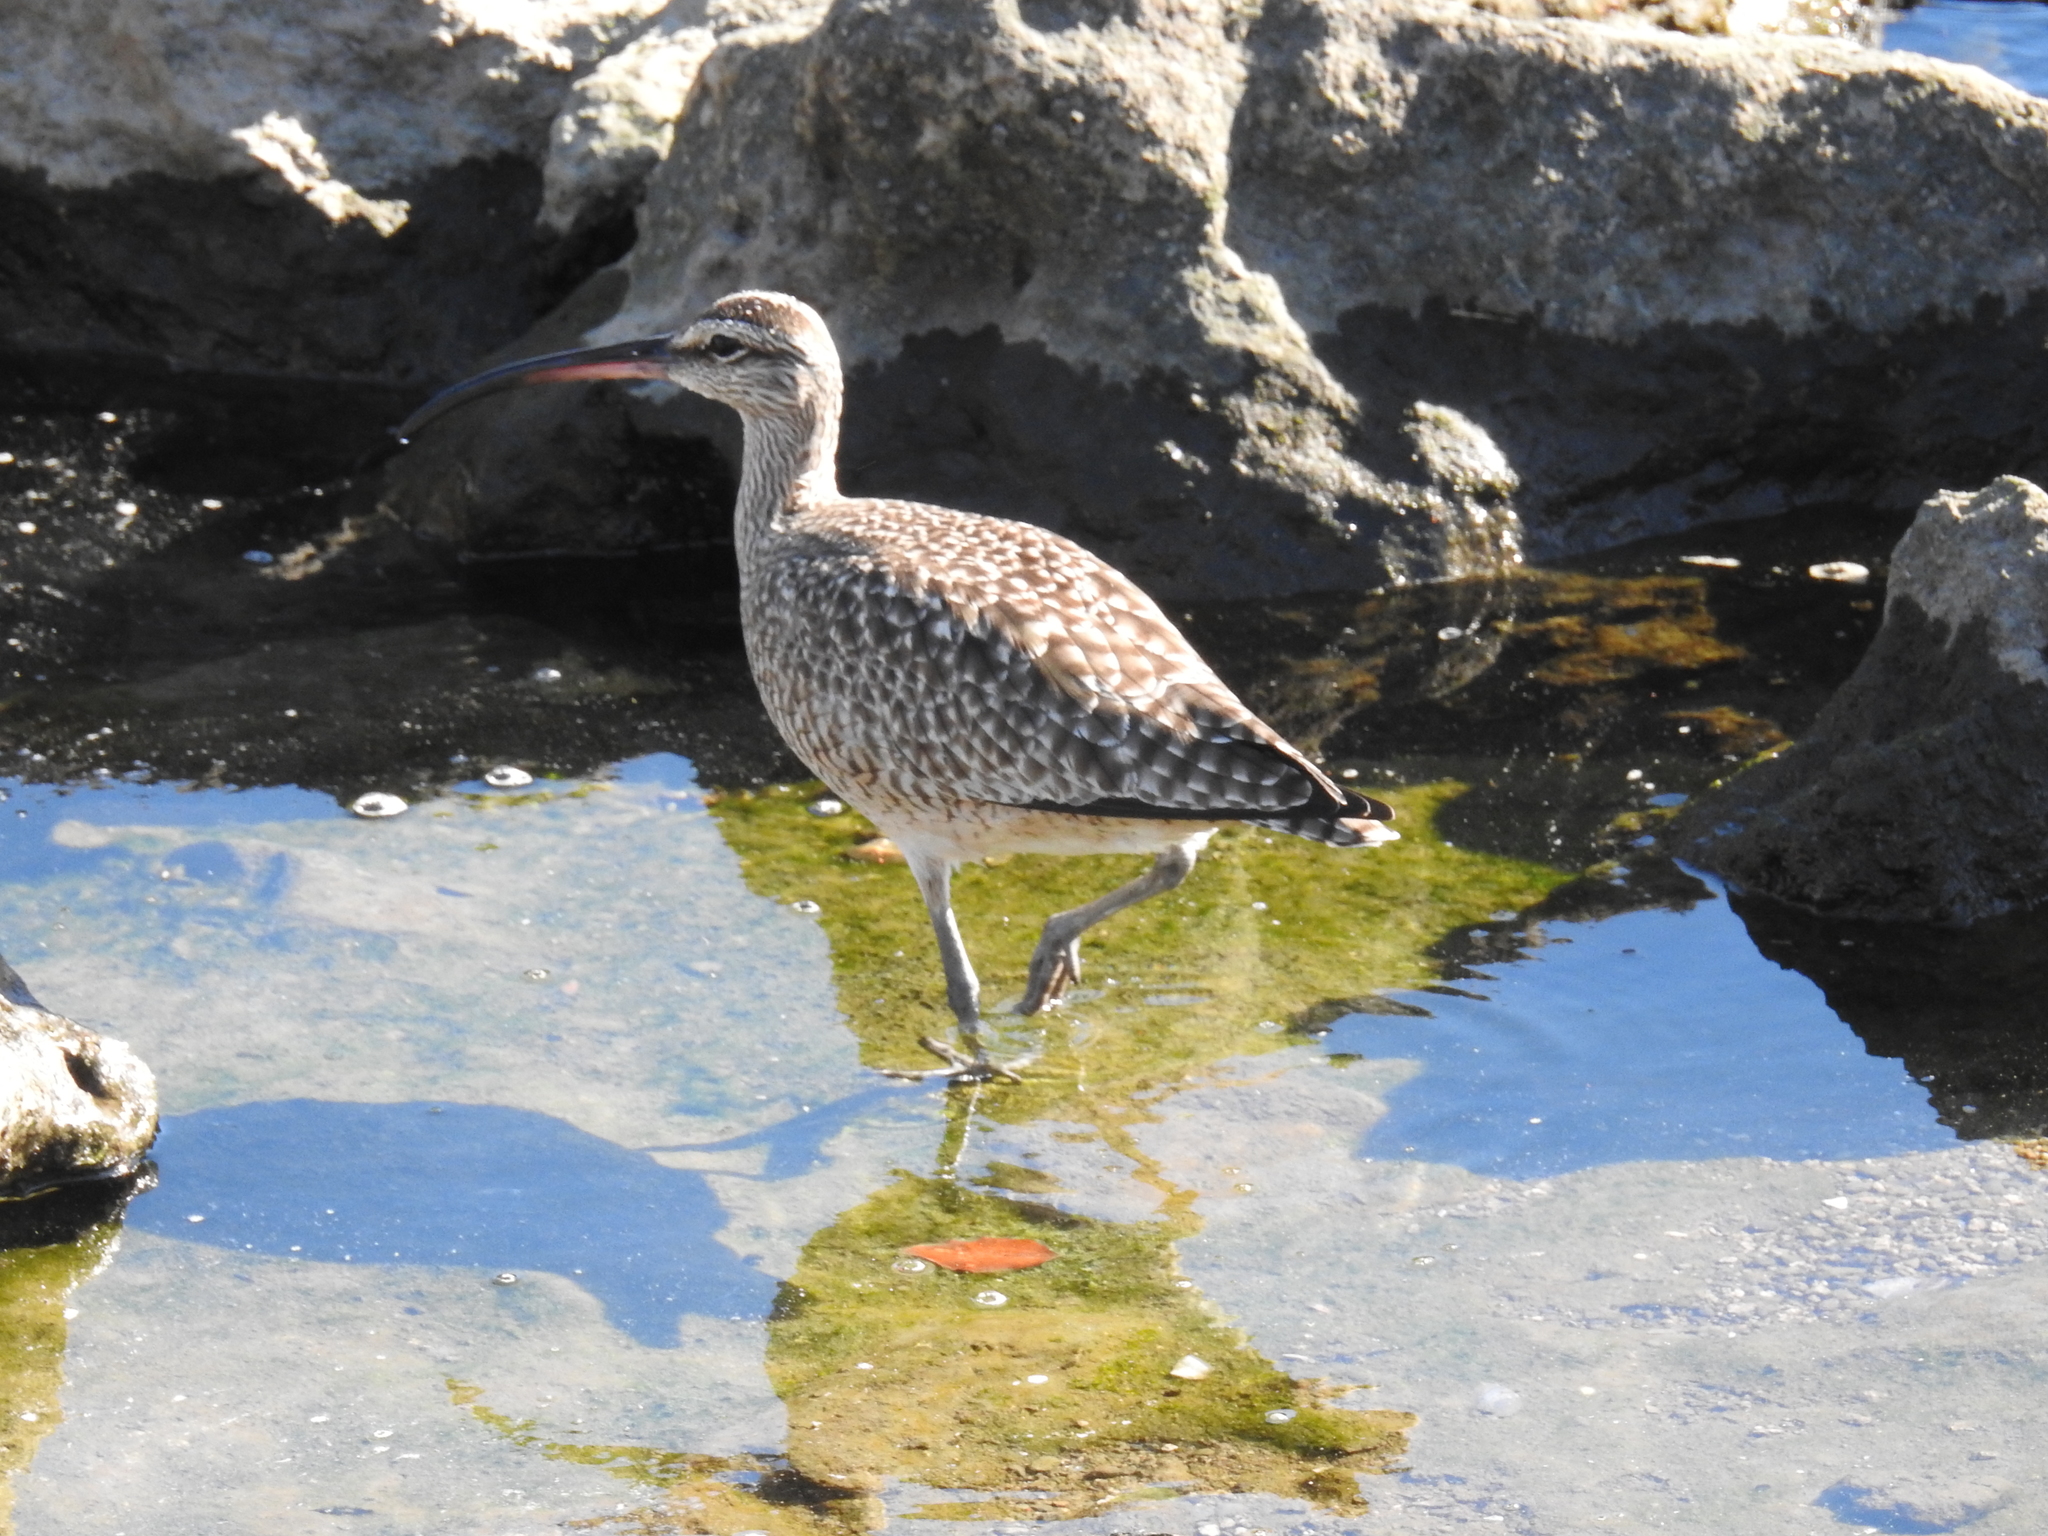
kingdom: Animalia
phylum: Chordata
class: Aves
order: Charadriiformes
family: Scolopacidae
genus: Numenius
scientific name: Numenius phaeopus
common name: Whimbrel
